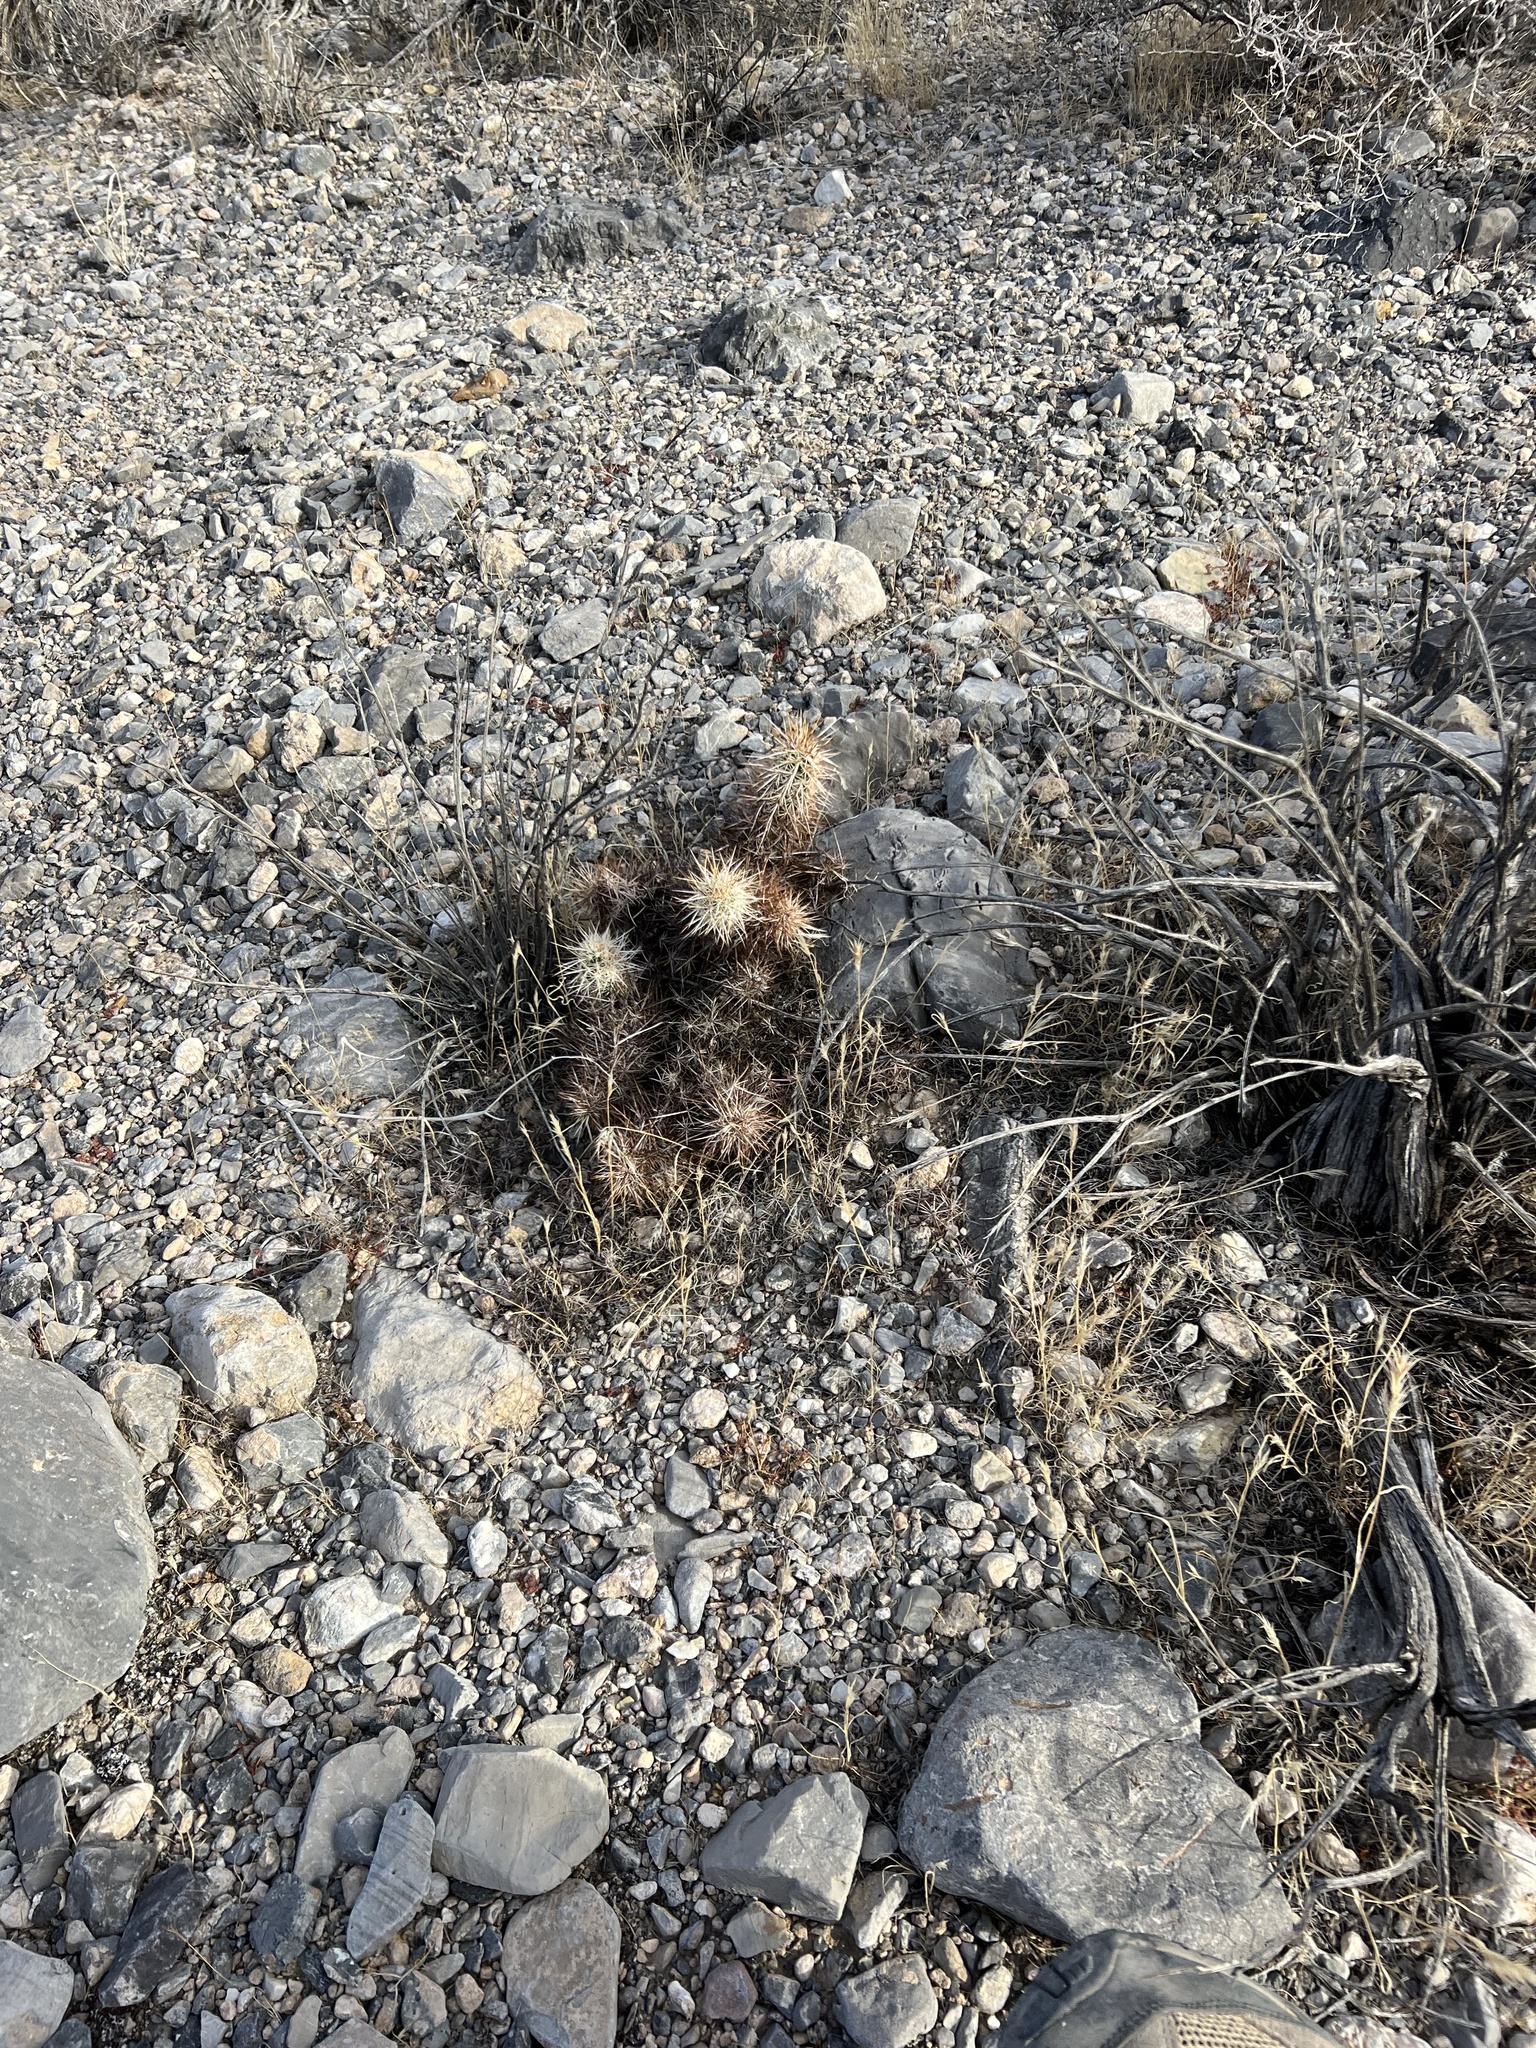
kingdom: Plantae
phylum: Tracheophyta
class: Magnoliopsida
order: Caryophyllales
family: Cactaceae
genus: Echinocereus
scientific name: Echinocereus engelmannii
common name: Engelmann's hedgehog cactus
